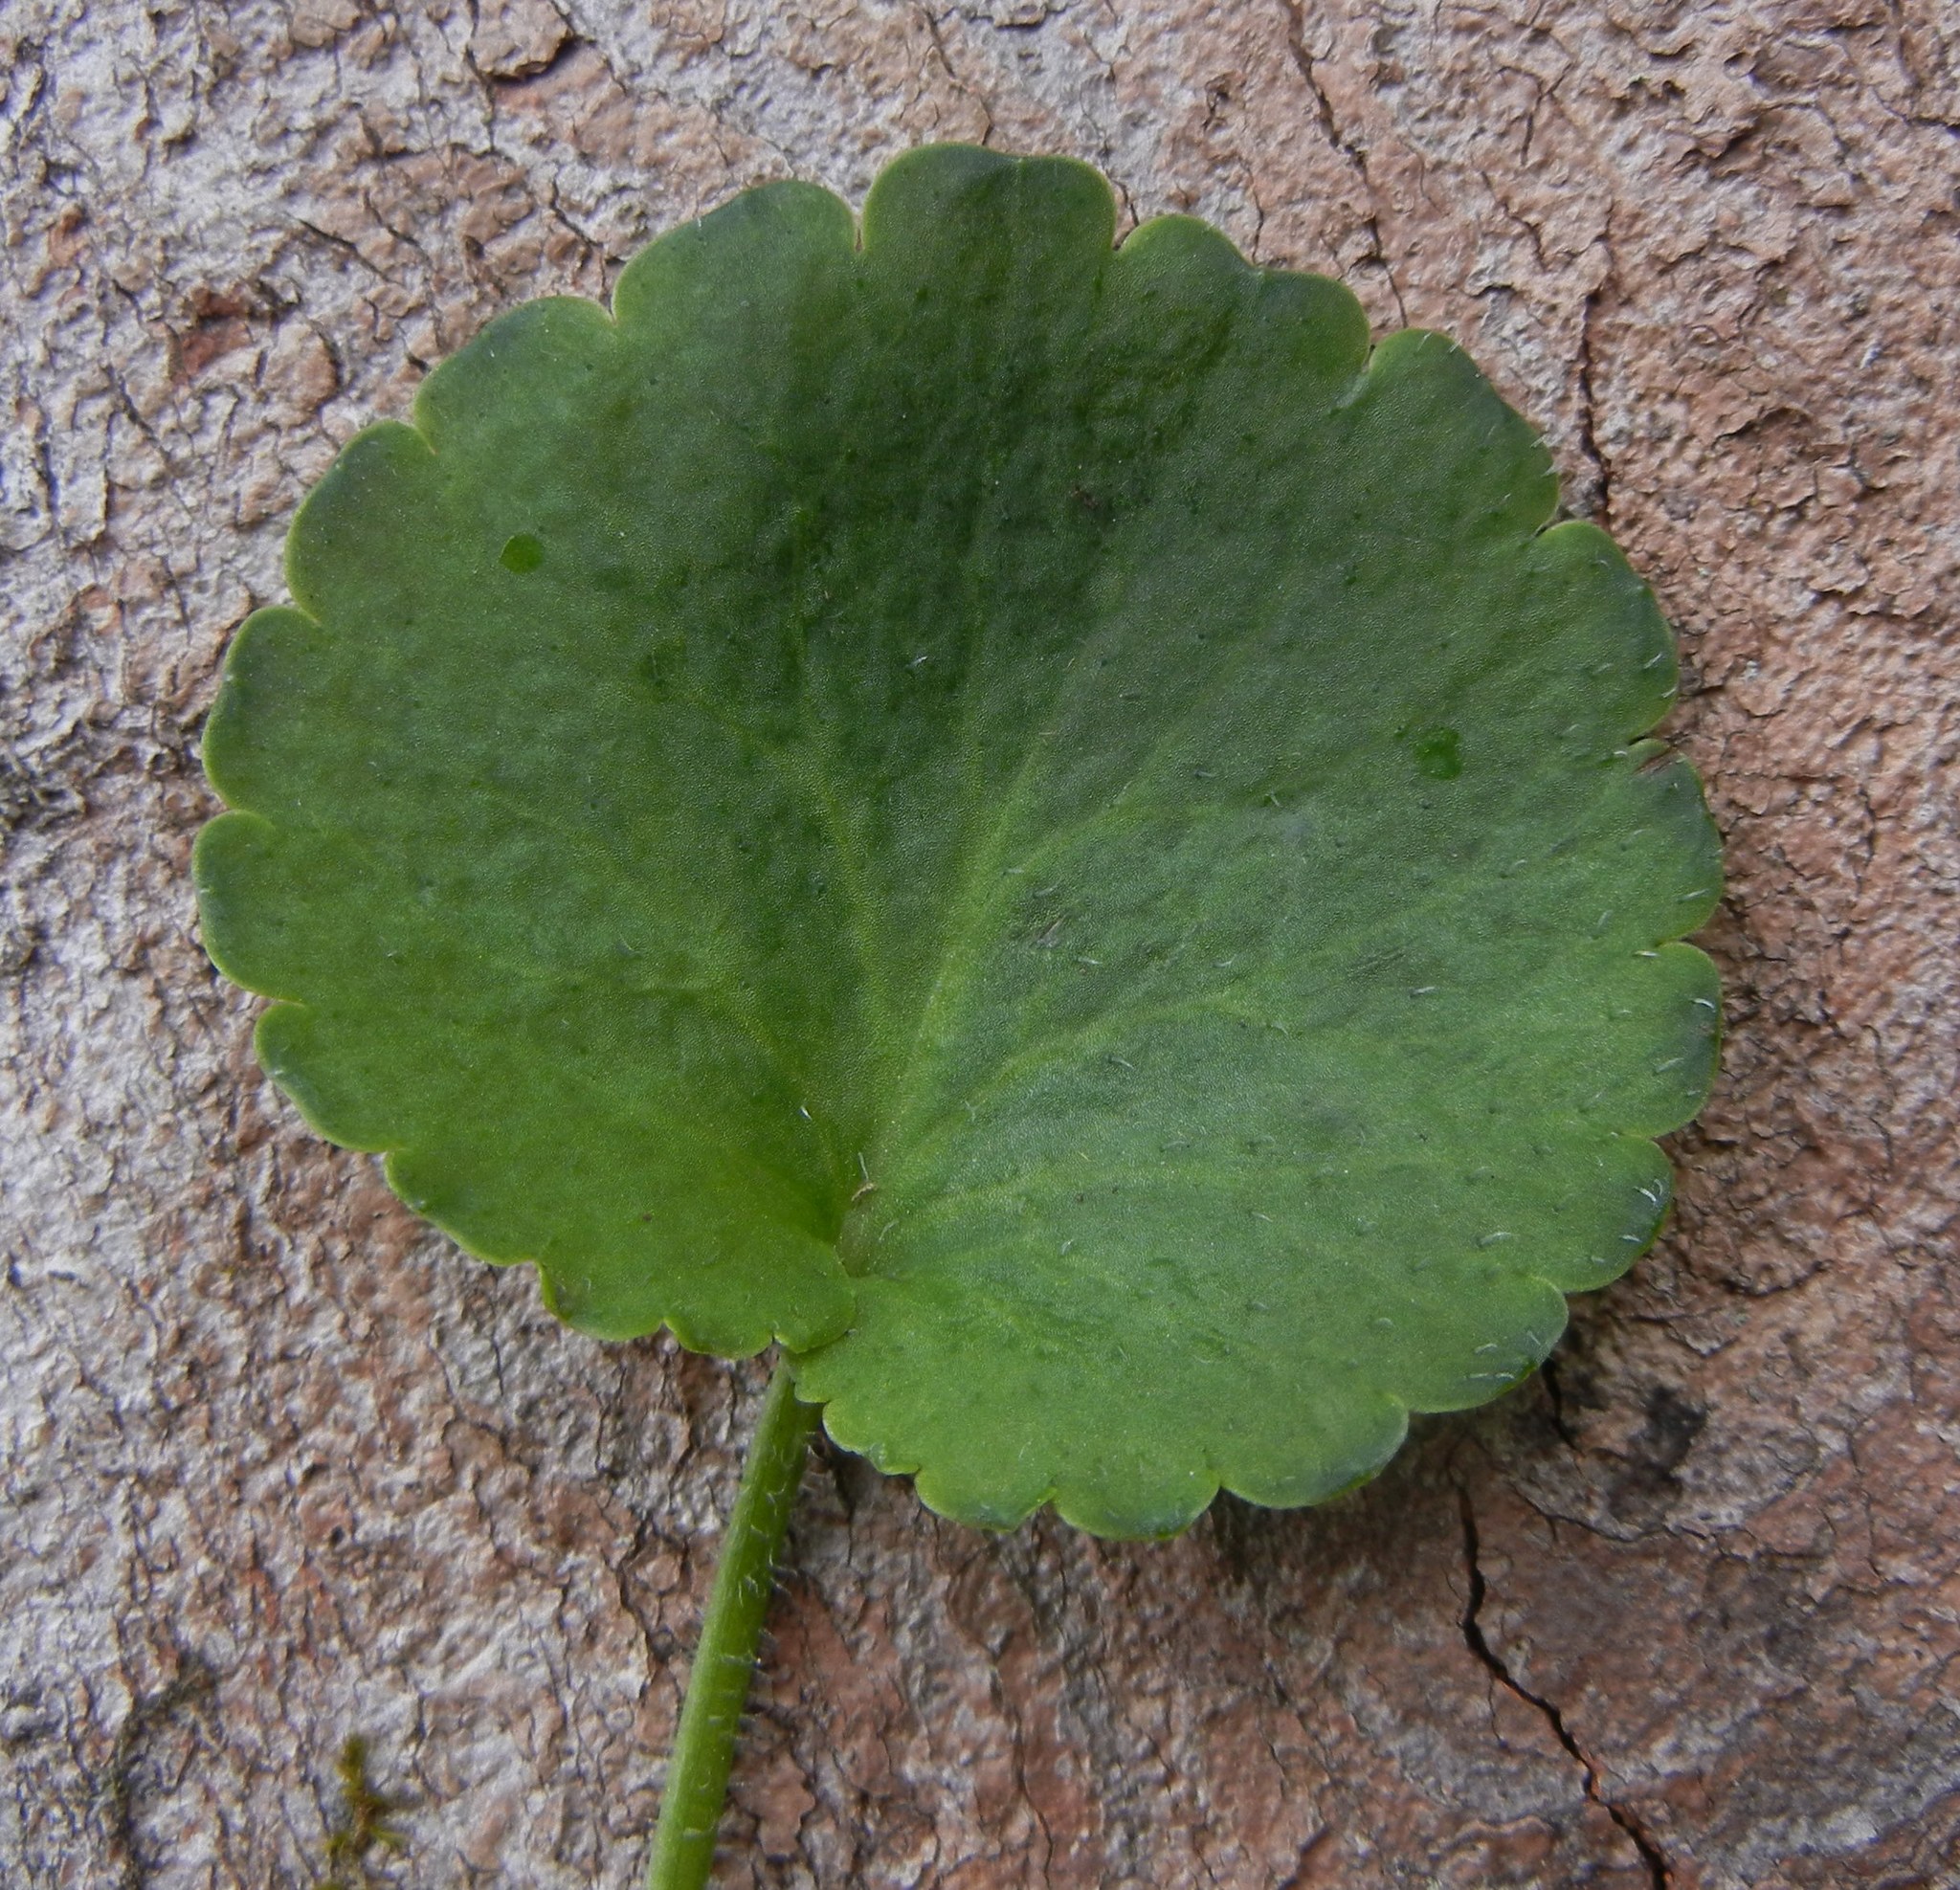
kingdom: Plantae
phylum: Tracheophyta
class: Magnoliopsida
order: Saxifragales
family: Saxifragaceae
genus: Saxifraga
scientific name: Saxifraga hirsuta
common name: Kidney saxifrage
